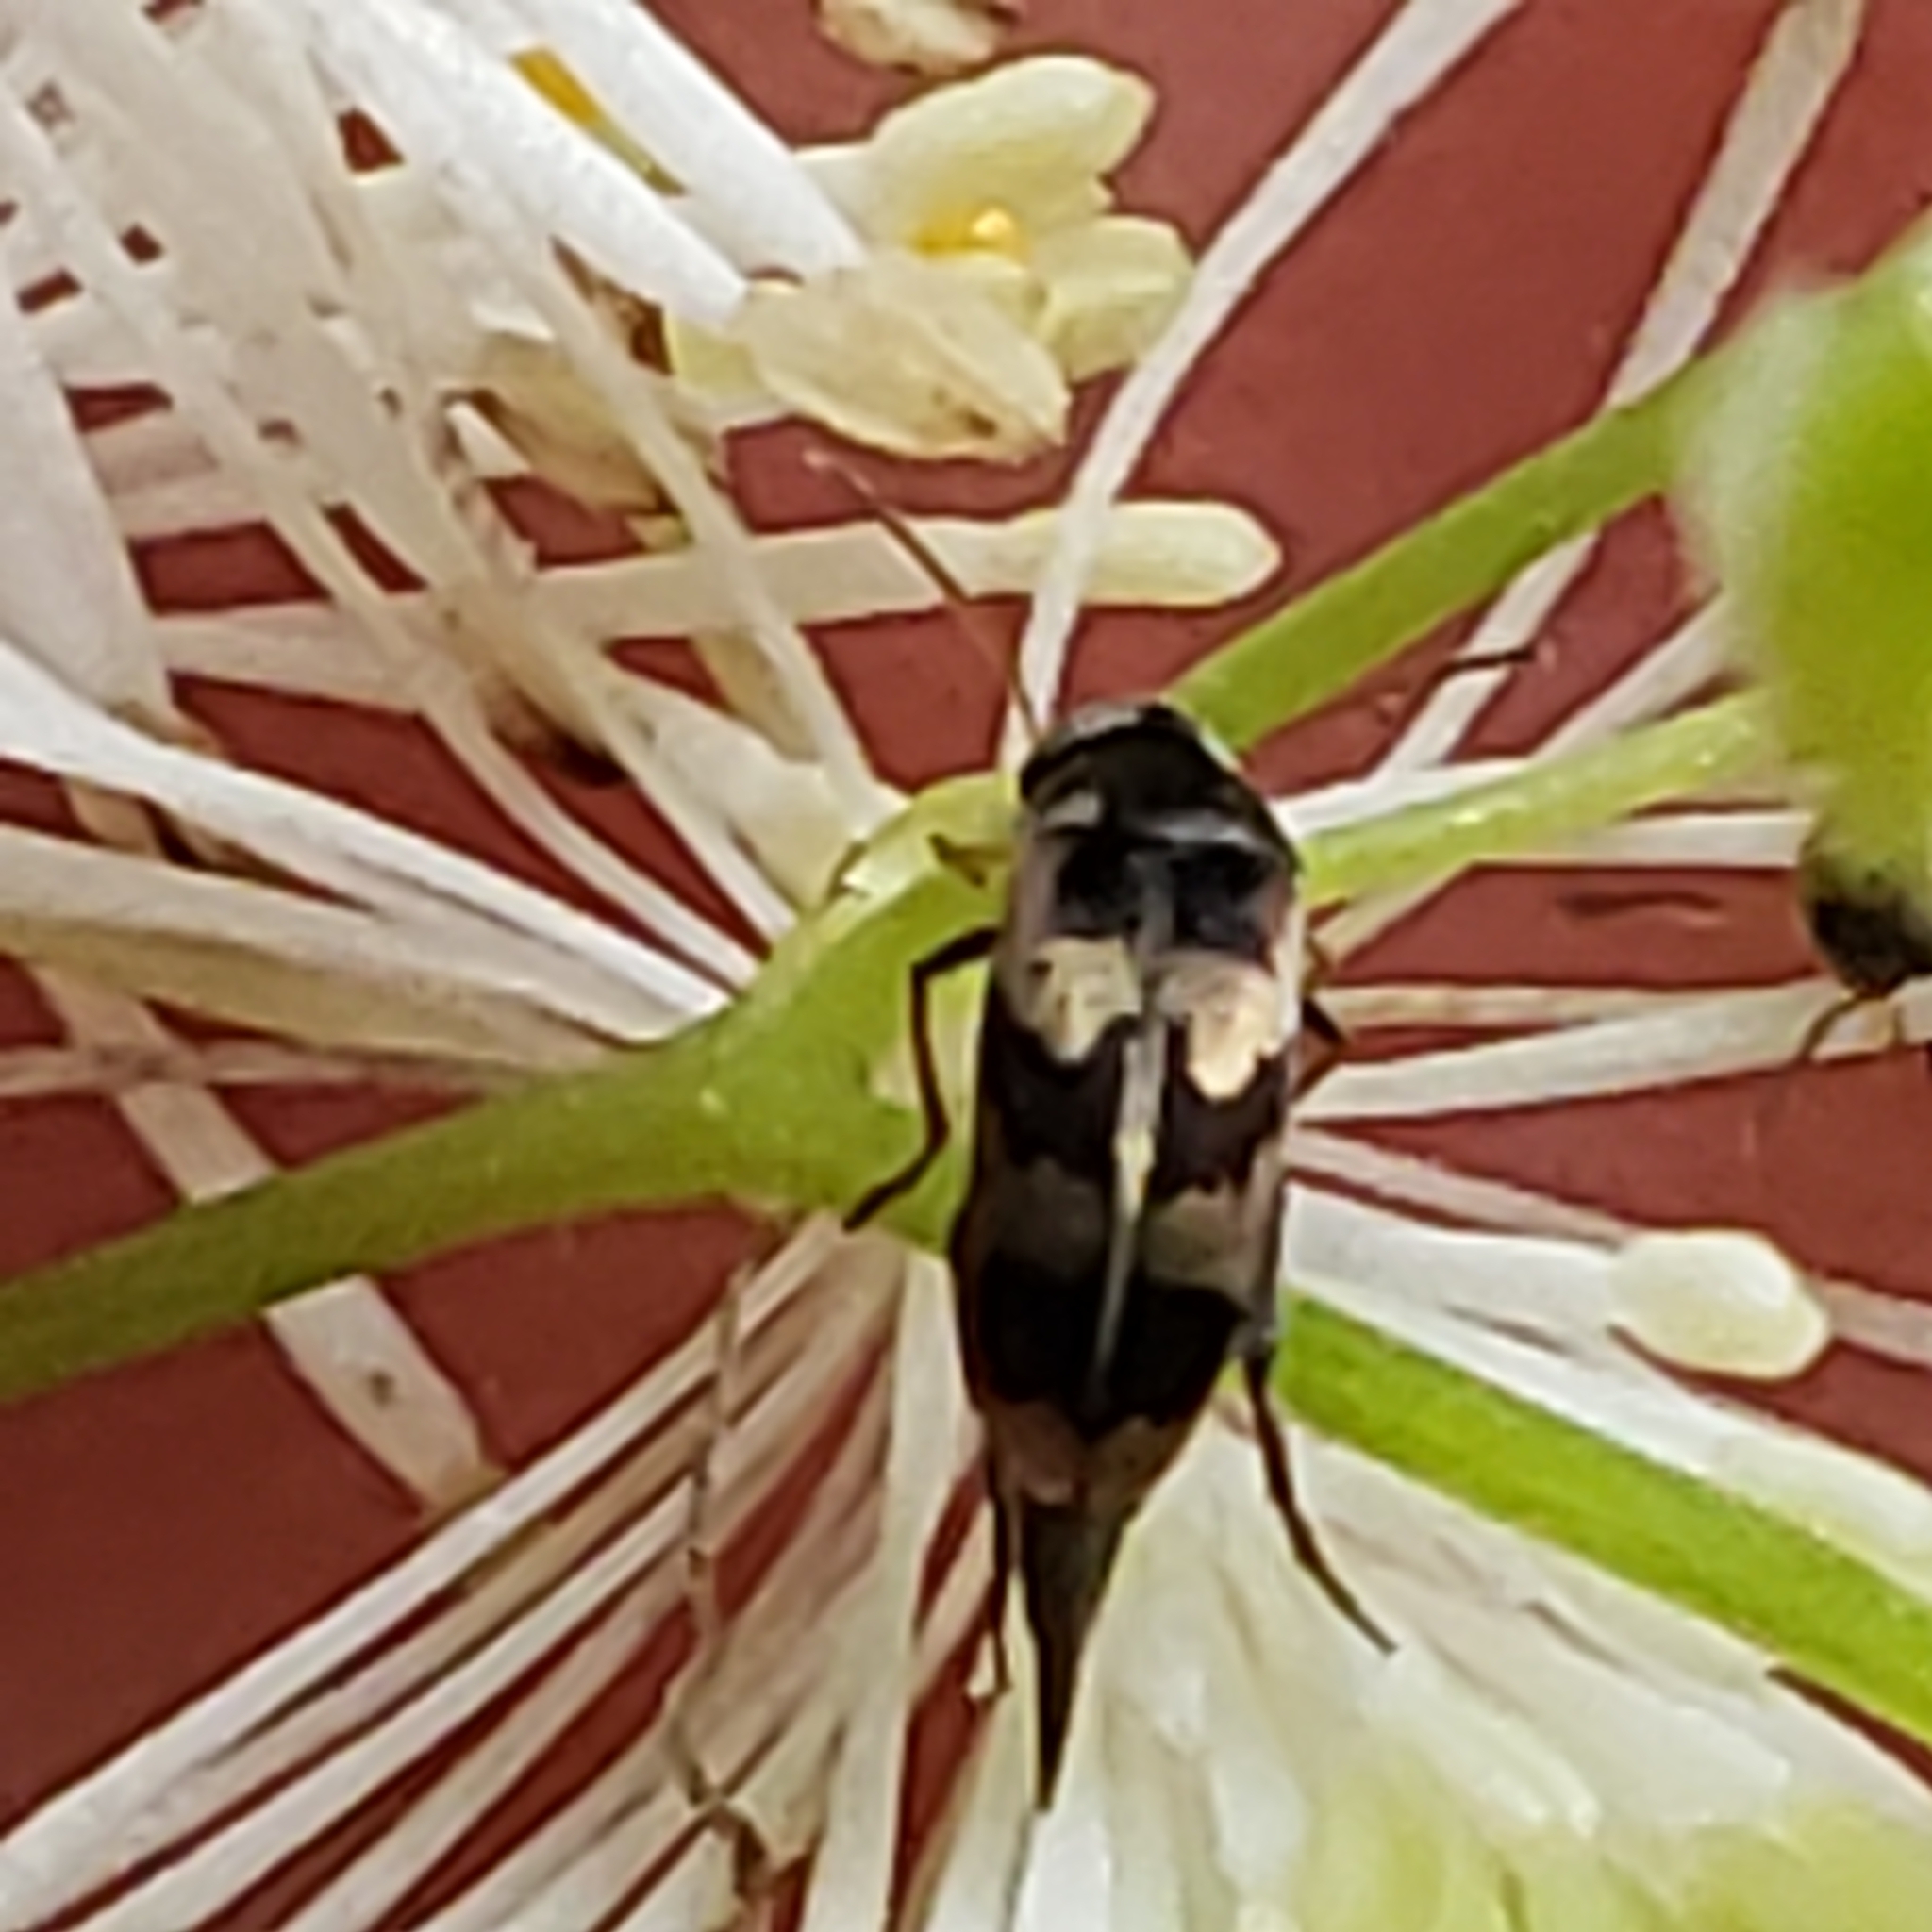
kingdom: Animalia
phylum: Arthropoda
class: Insecta
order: Coleoptera
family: Mordellidae
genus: Falsomordellistena
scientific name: Falsomordellistena pubescens
